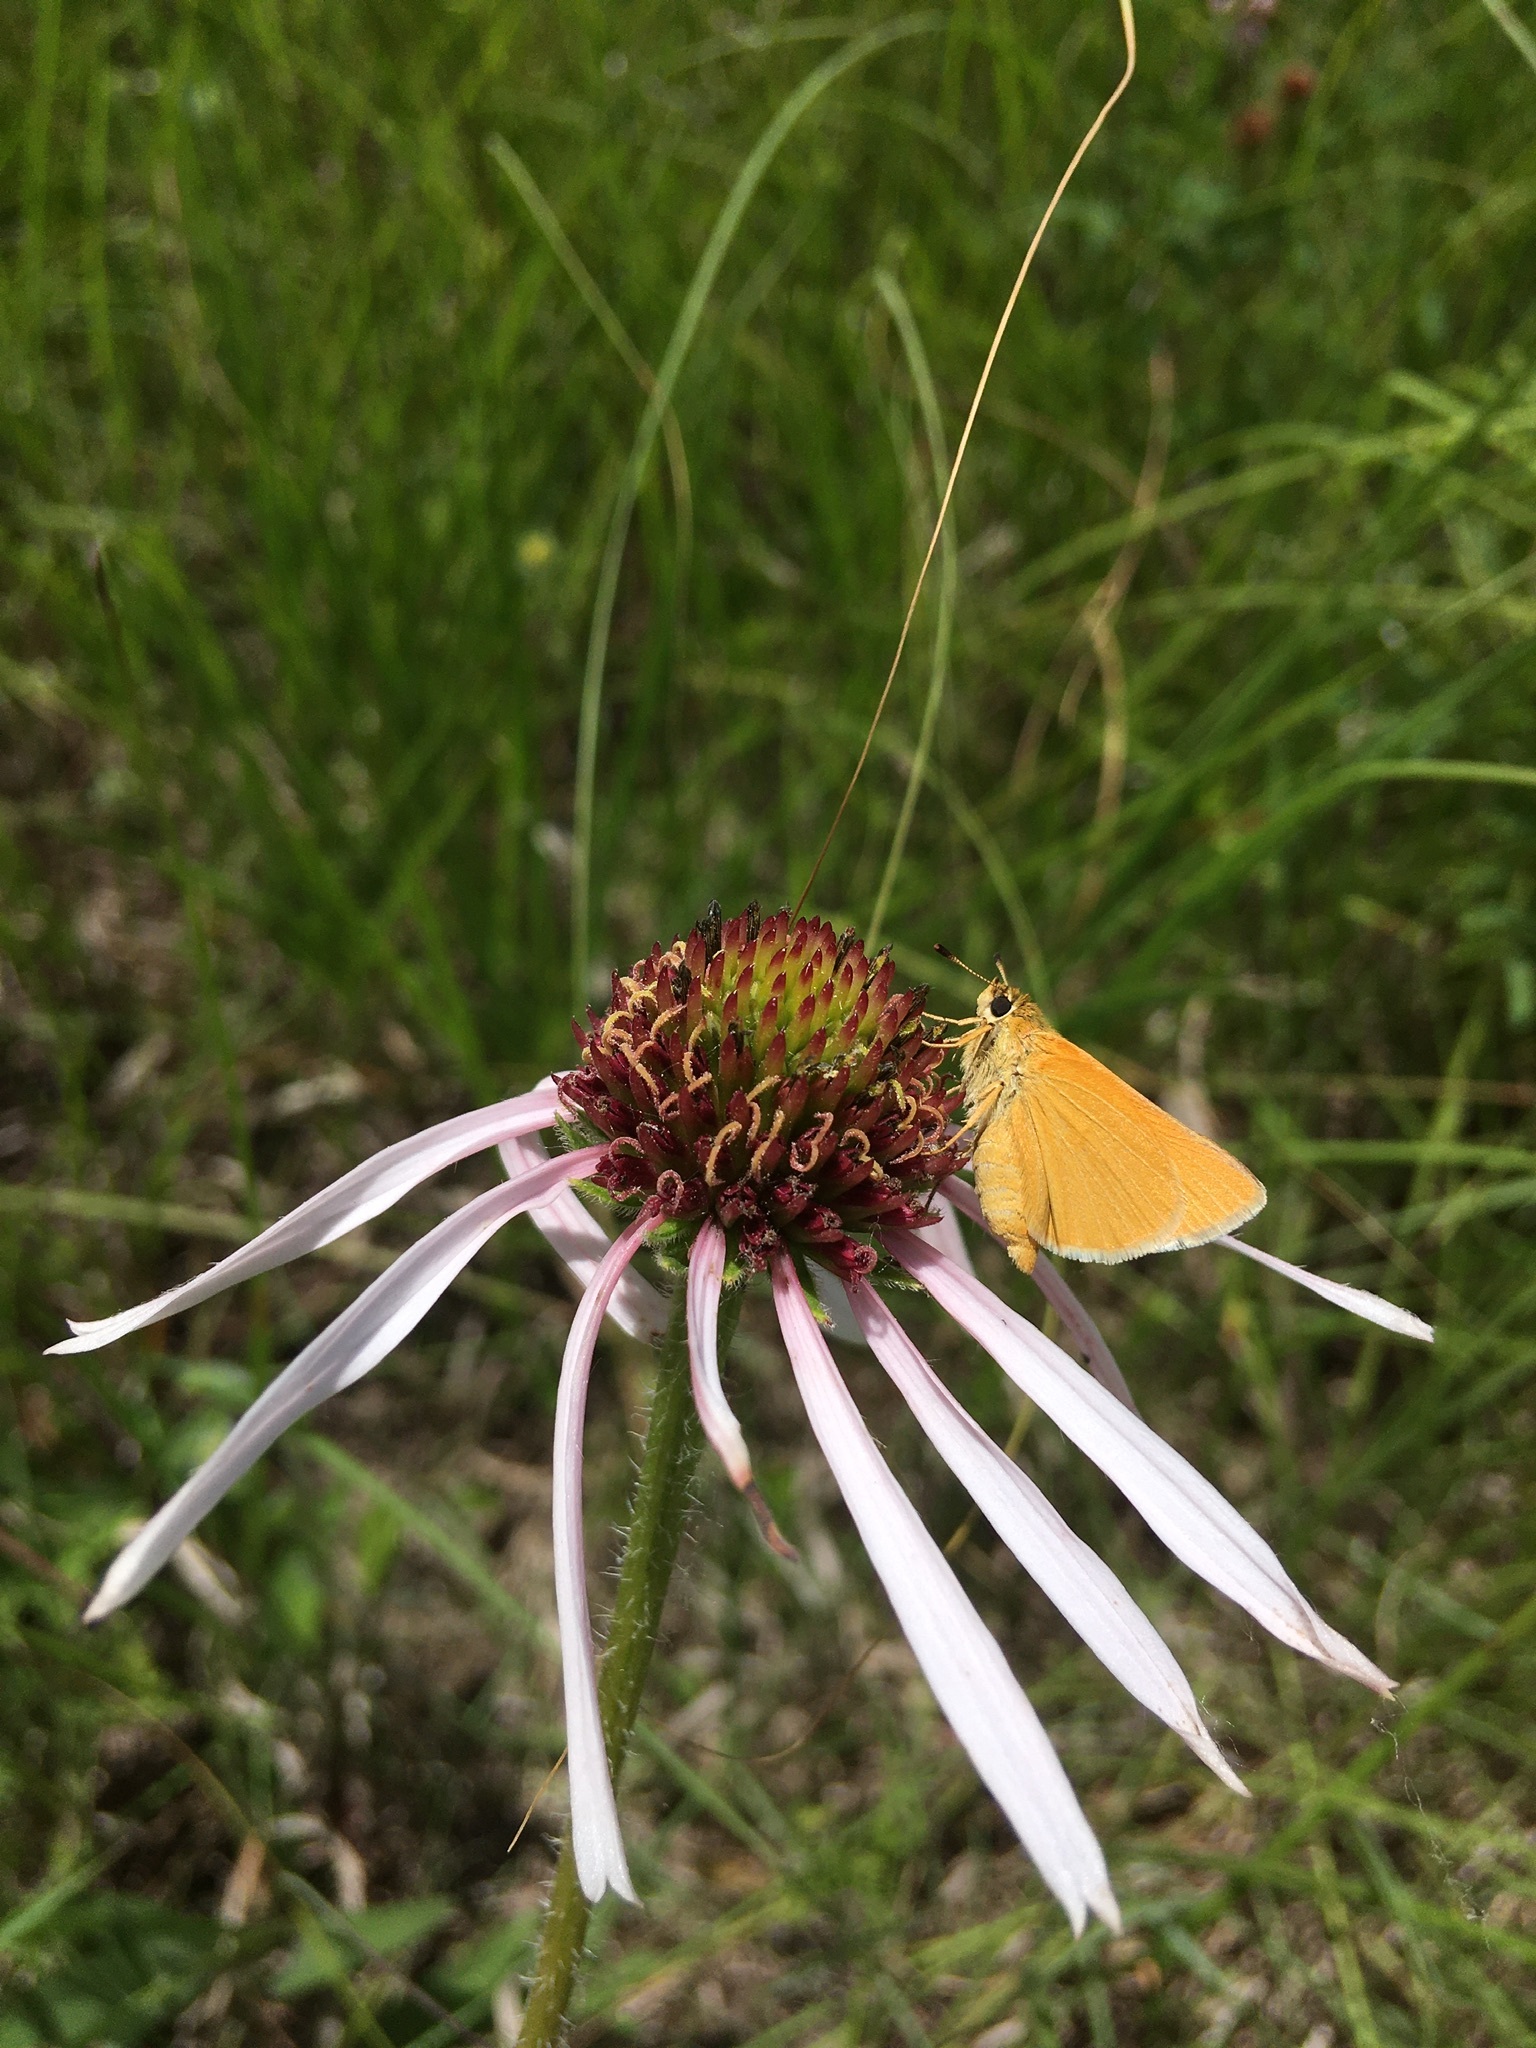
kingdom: Animalia
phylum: Arthropoda
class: Insecta
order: Lepidoptera
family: Hesperiidae
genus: Atrytone
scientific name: Atrytone delaware
